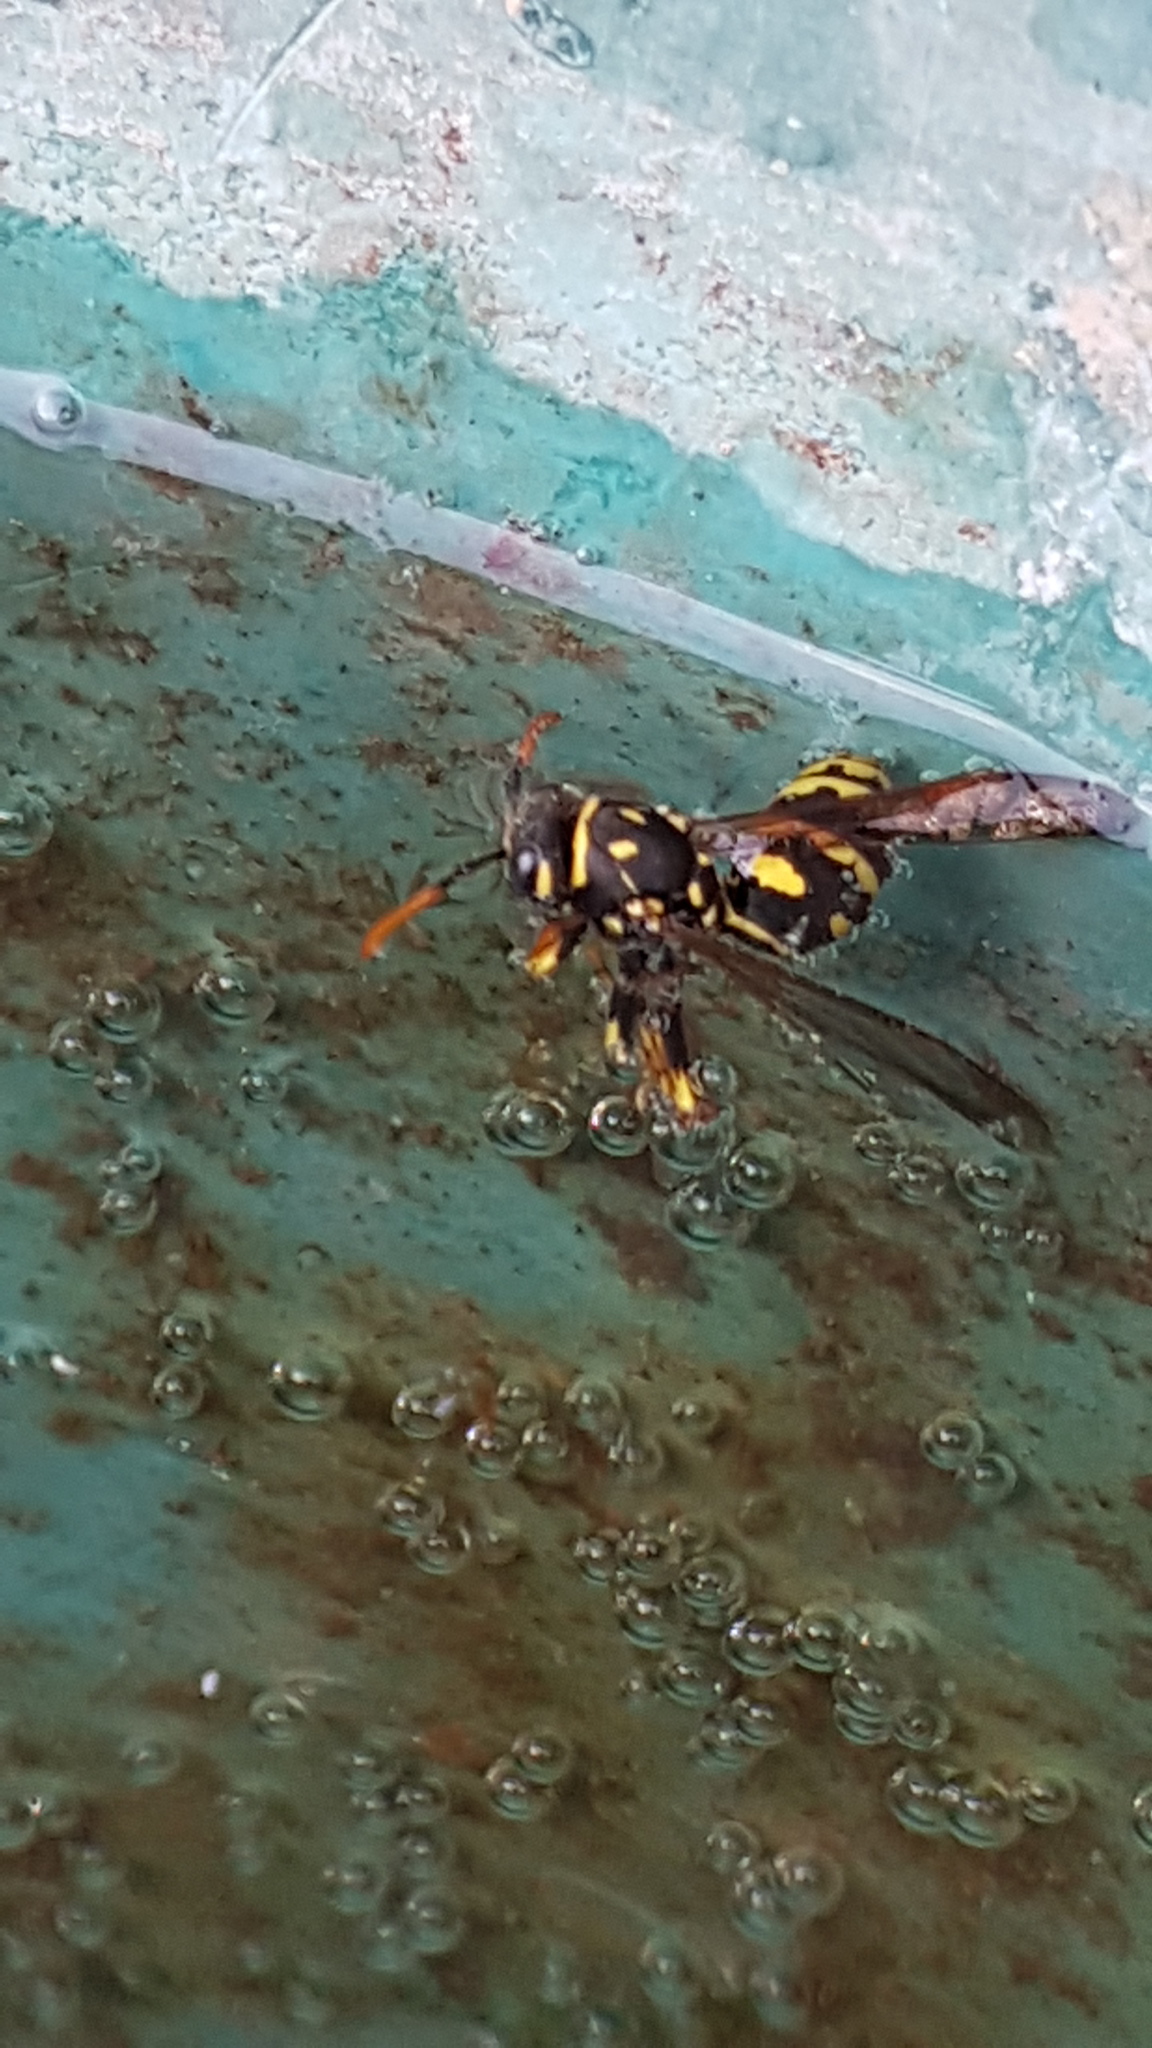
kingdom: Animalia
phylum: Arthropoda
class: Insecta
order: Hymenoptera
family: Eumenidae
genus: Polistes
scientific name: Polistes dominula
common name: Paper wasp
